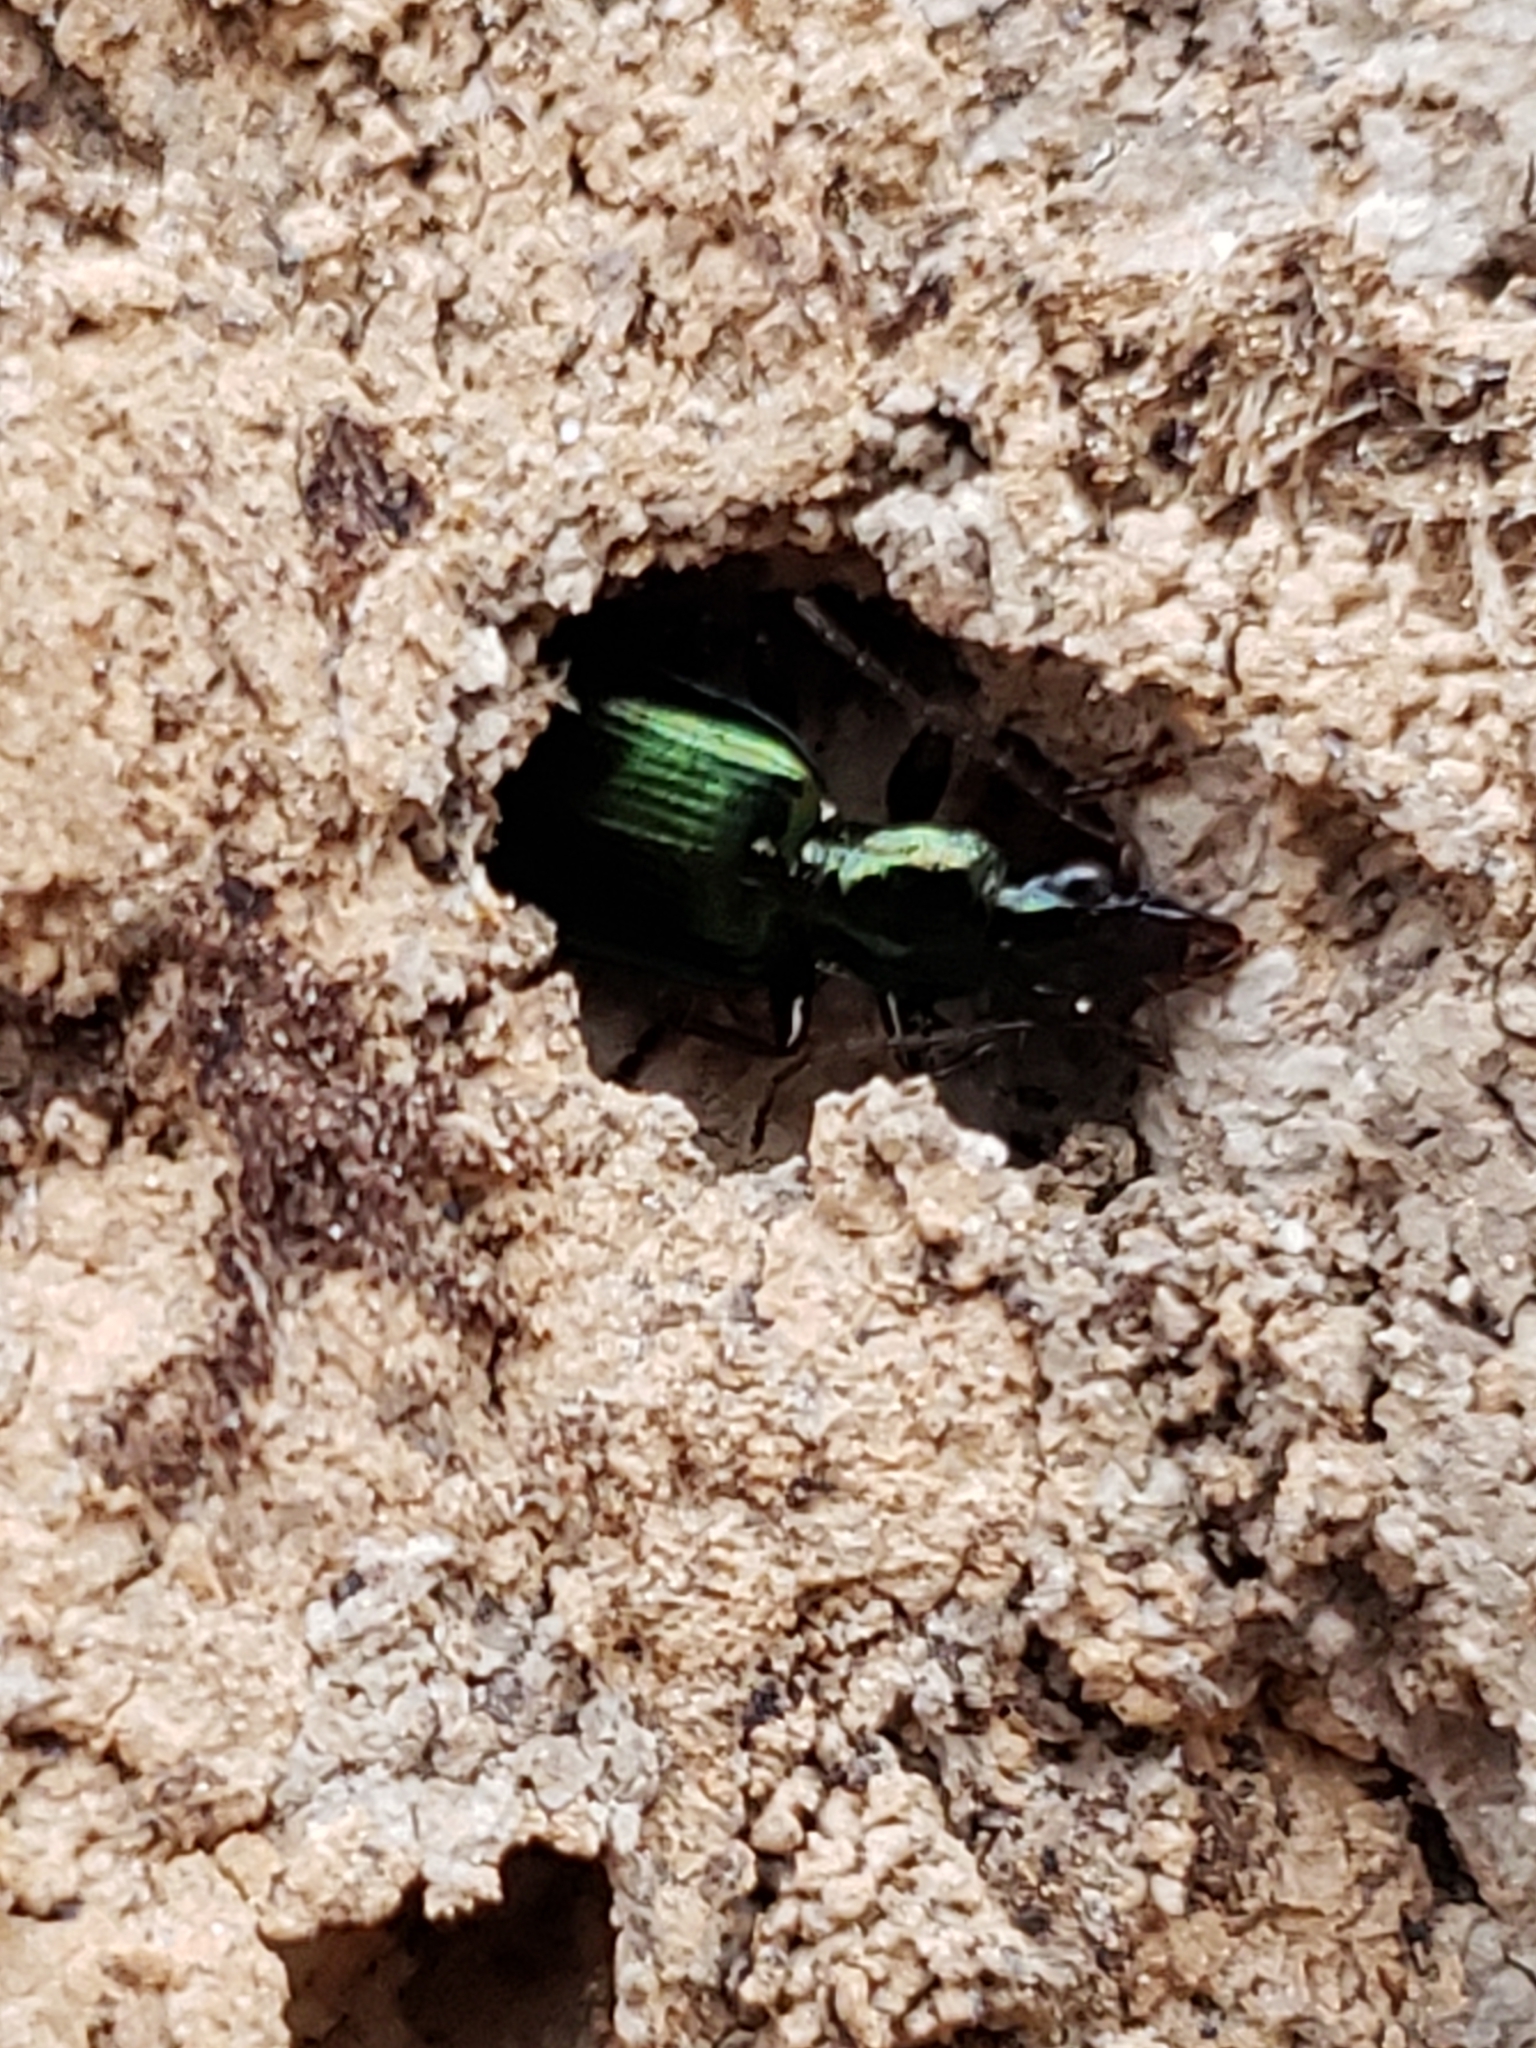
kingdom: Animalia
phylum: Arthropoda
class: Insecta
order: Coleoptera
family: Carabidae
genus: Calleida
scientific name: Calleida viridipennis
